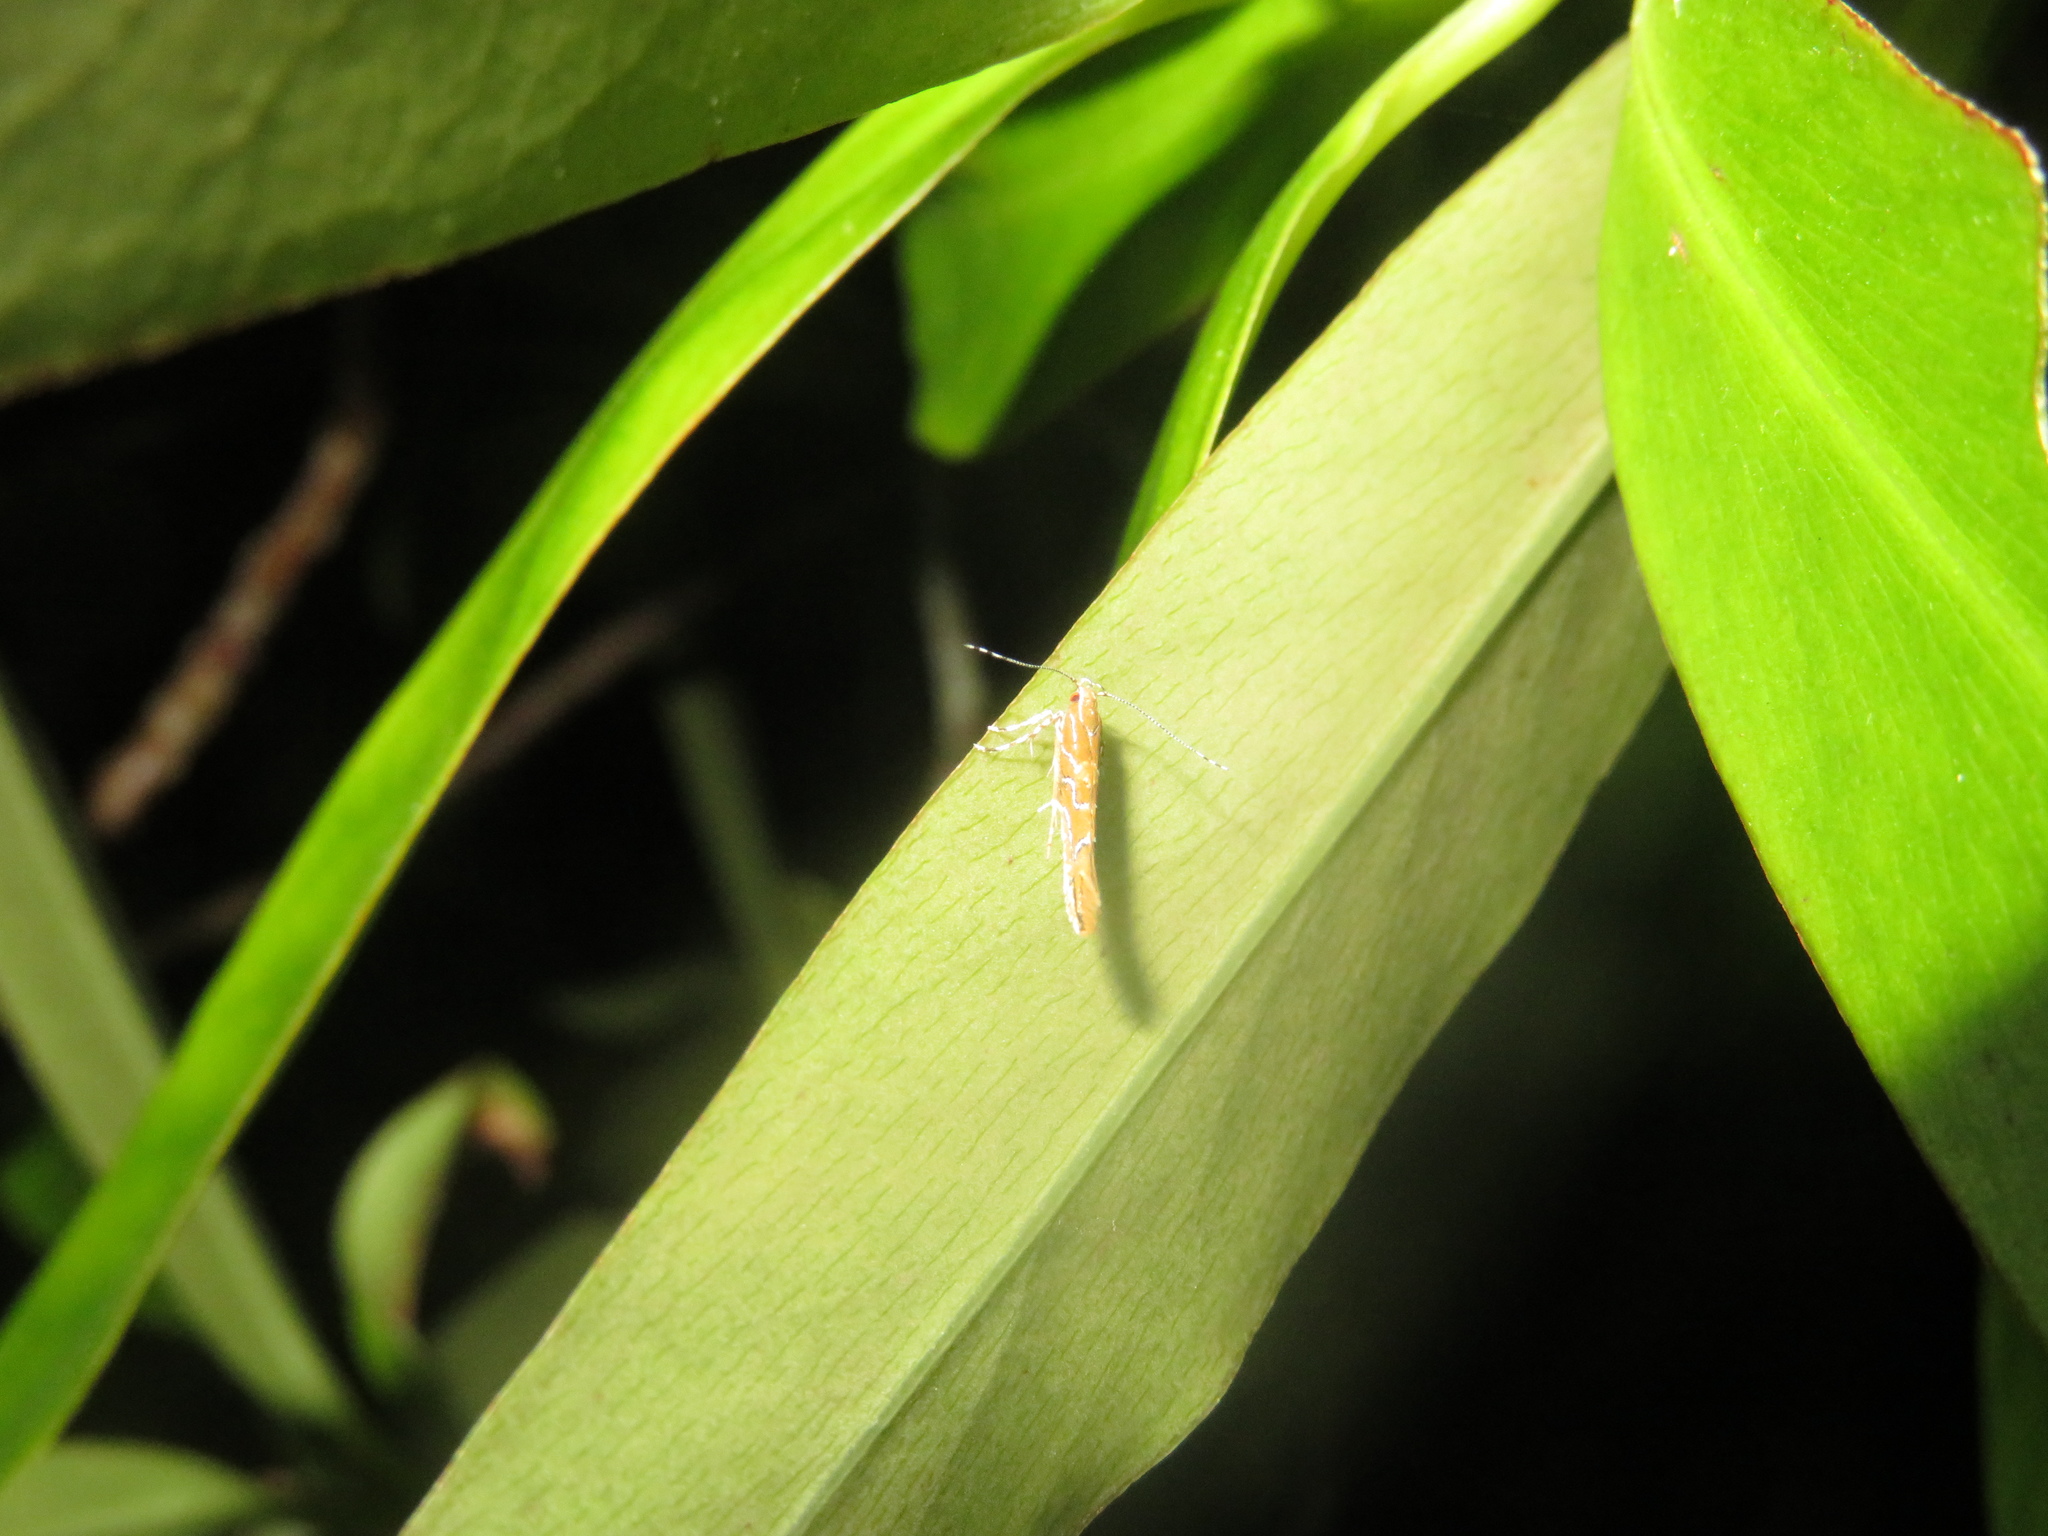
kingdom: Animalia
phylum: Arthropoda
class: Insecta
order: Lepidoptera
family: Cosmopterigidae
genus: Pyroderces
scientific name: Pyroderces apparitella
